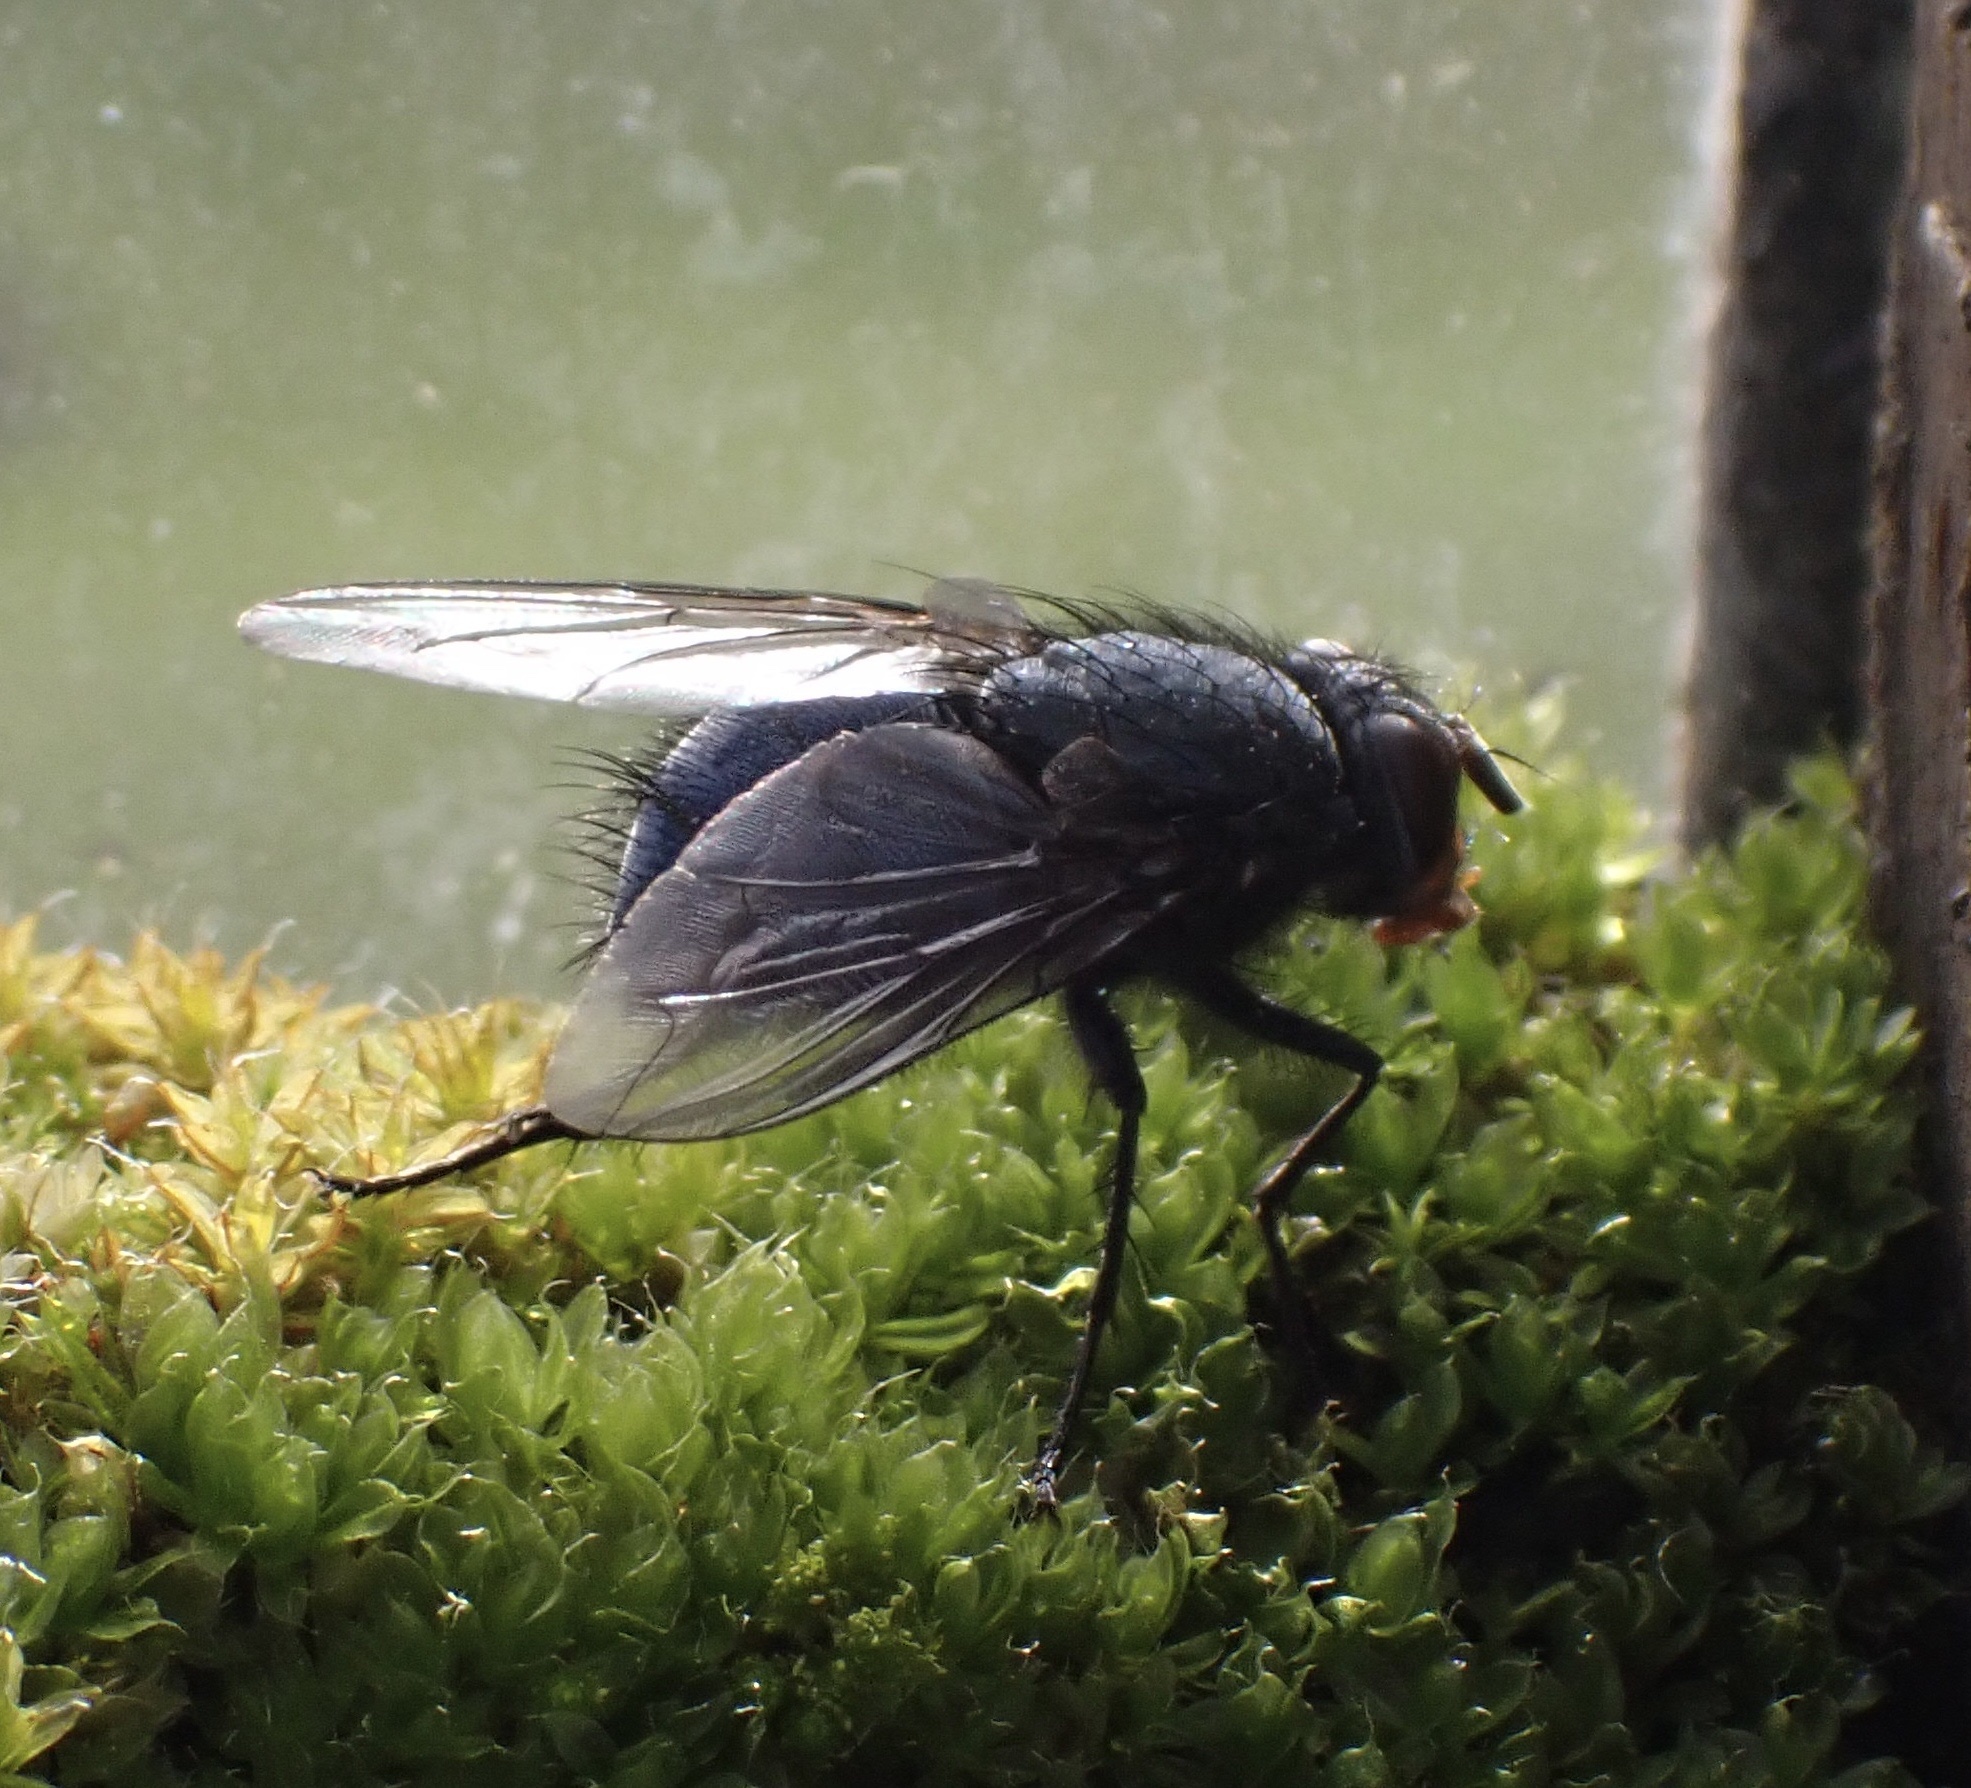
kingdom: Animalia
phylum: Arthropoda
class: Insecta
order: Diptera
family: Calliphoridae
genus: Calliphora
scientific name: Calliphora vicina
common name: Common blow flie
